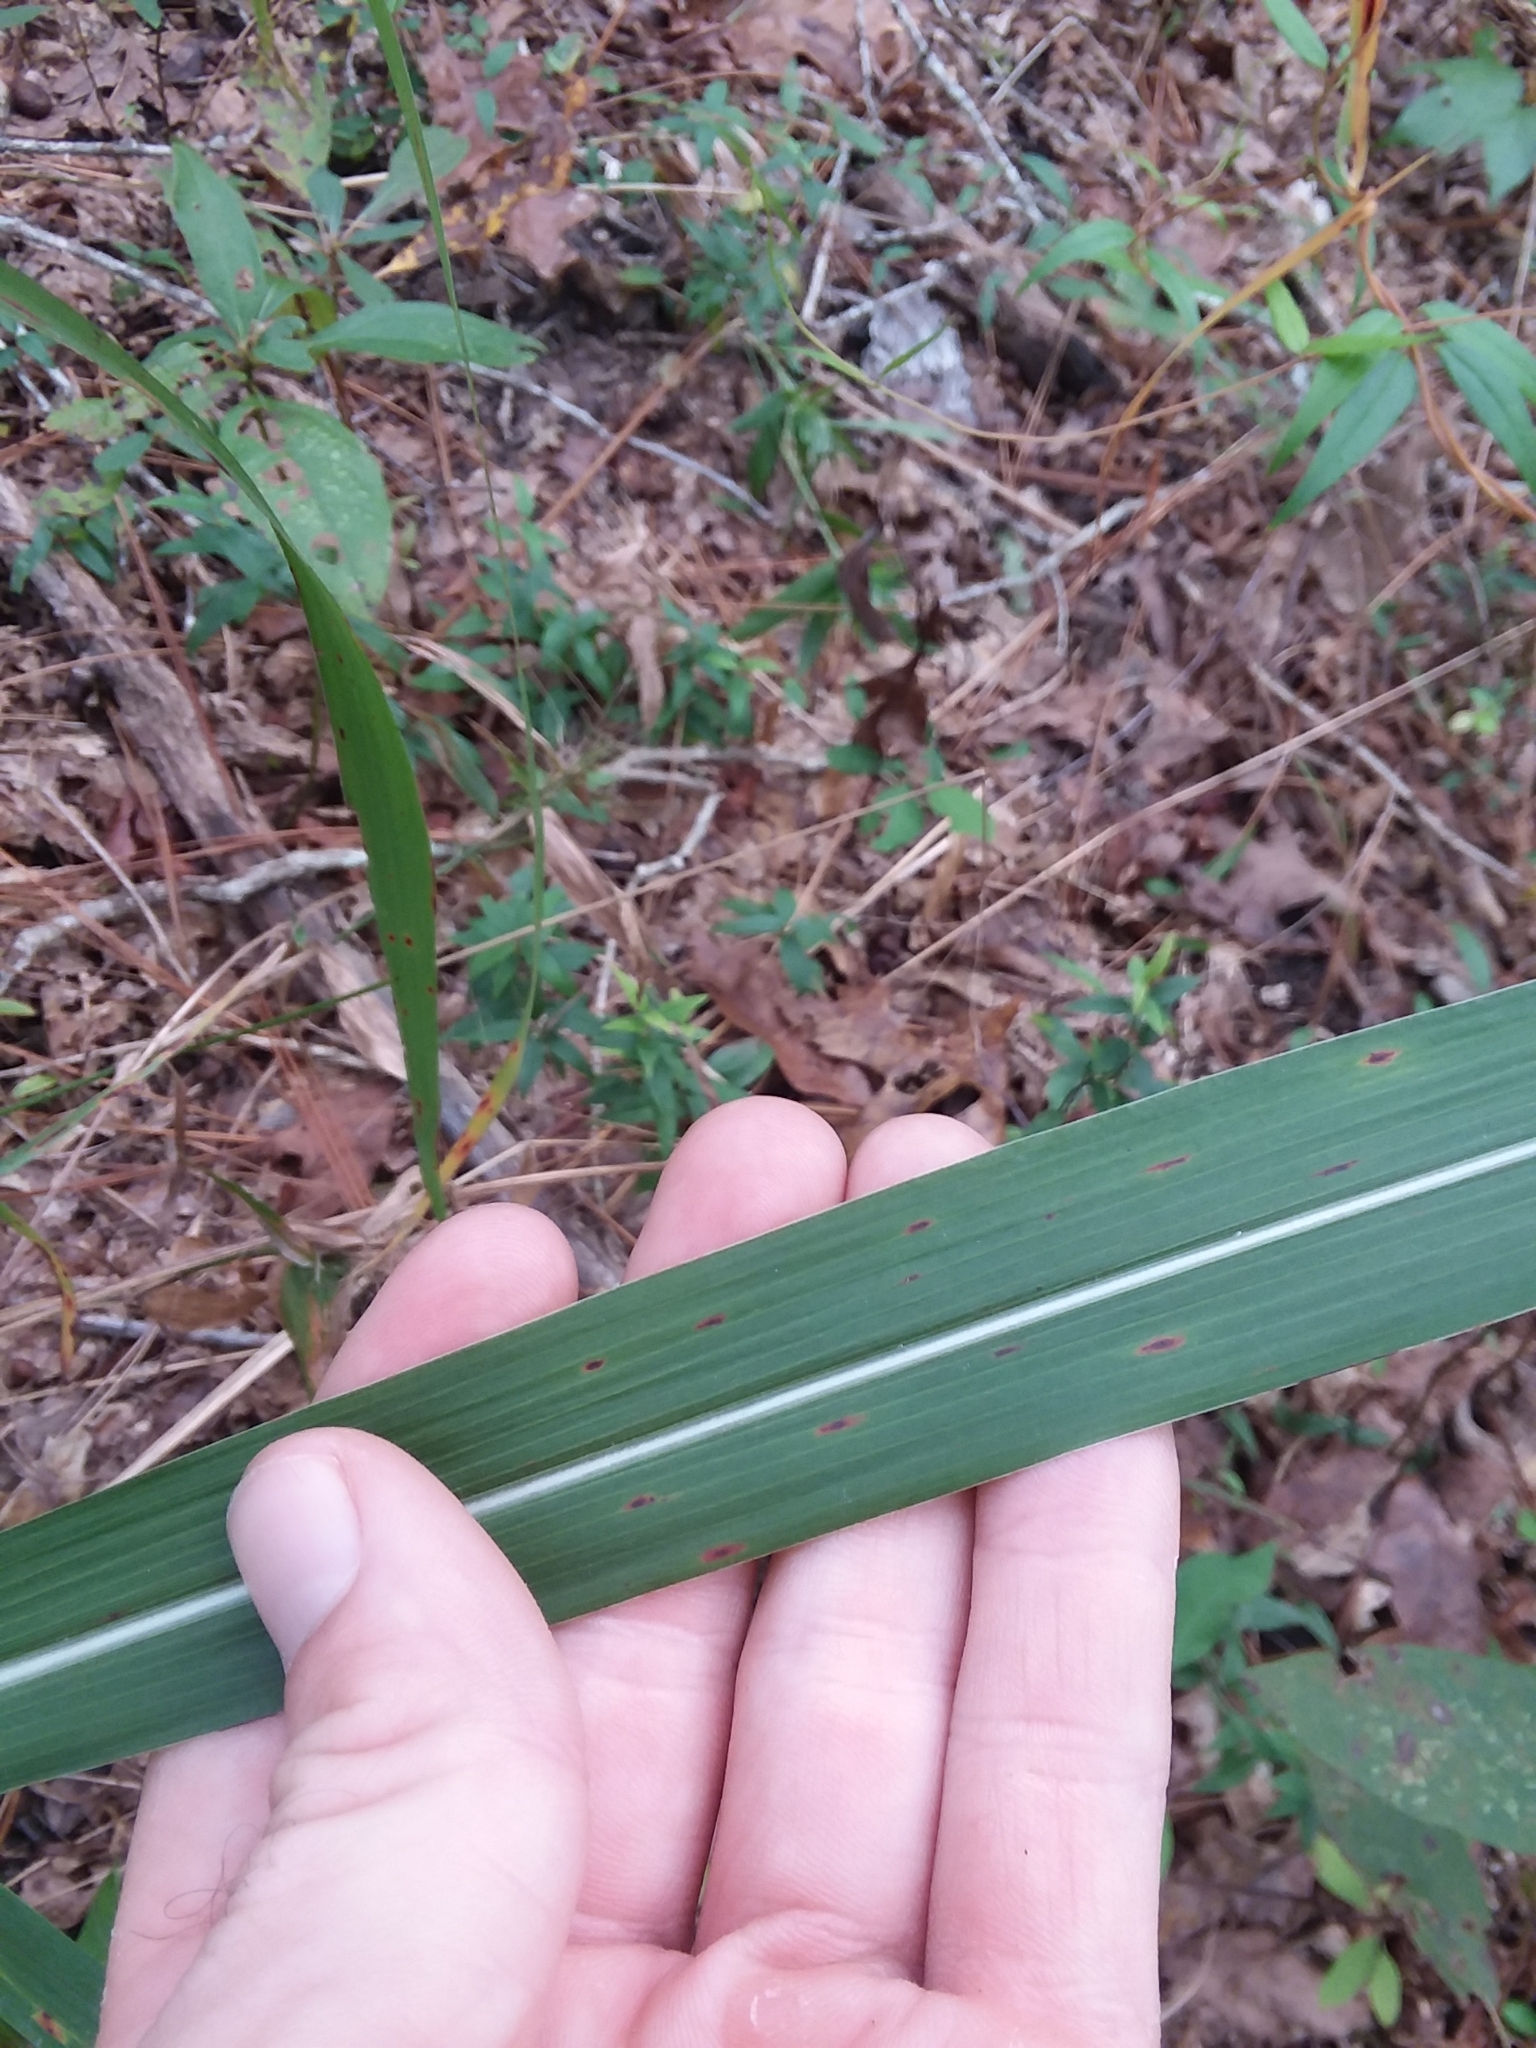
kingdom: Plantae
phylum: Tracheophyta
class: Liliopsida
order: Poales
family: Poaceae
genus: Erianthus
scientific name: Erianthus alopecuroides
